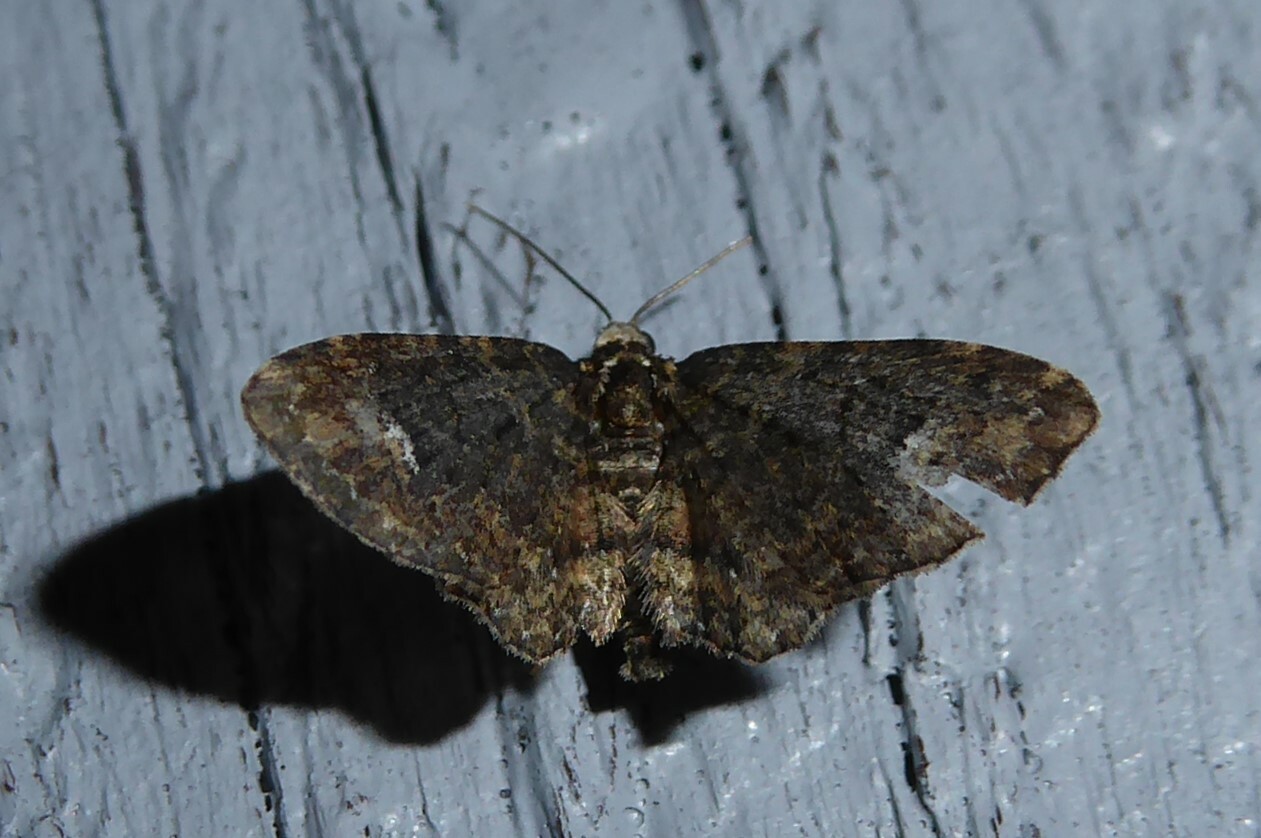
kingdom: Animalia
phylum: Arthropoda
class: Insecta
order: Lepidoptera
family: Geometridae
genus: Pasiphilodes
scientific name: Pasiphilodes testulata
